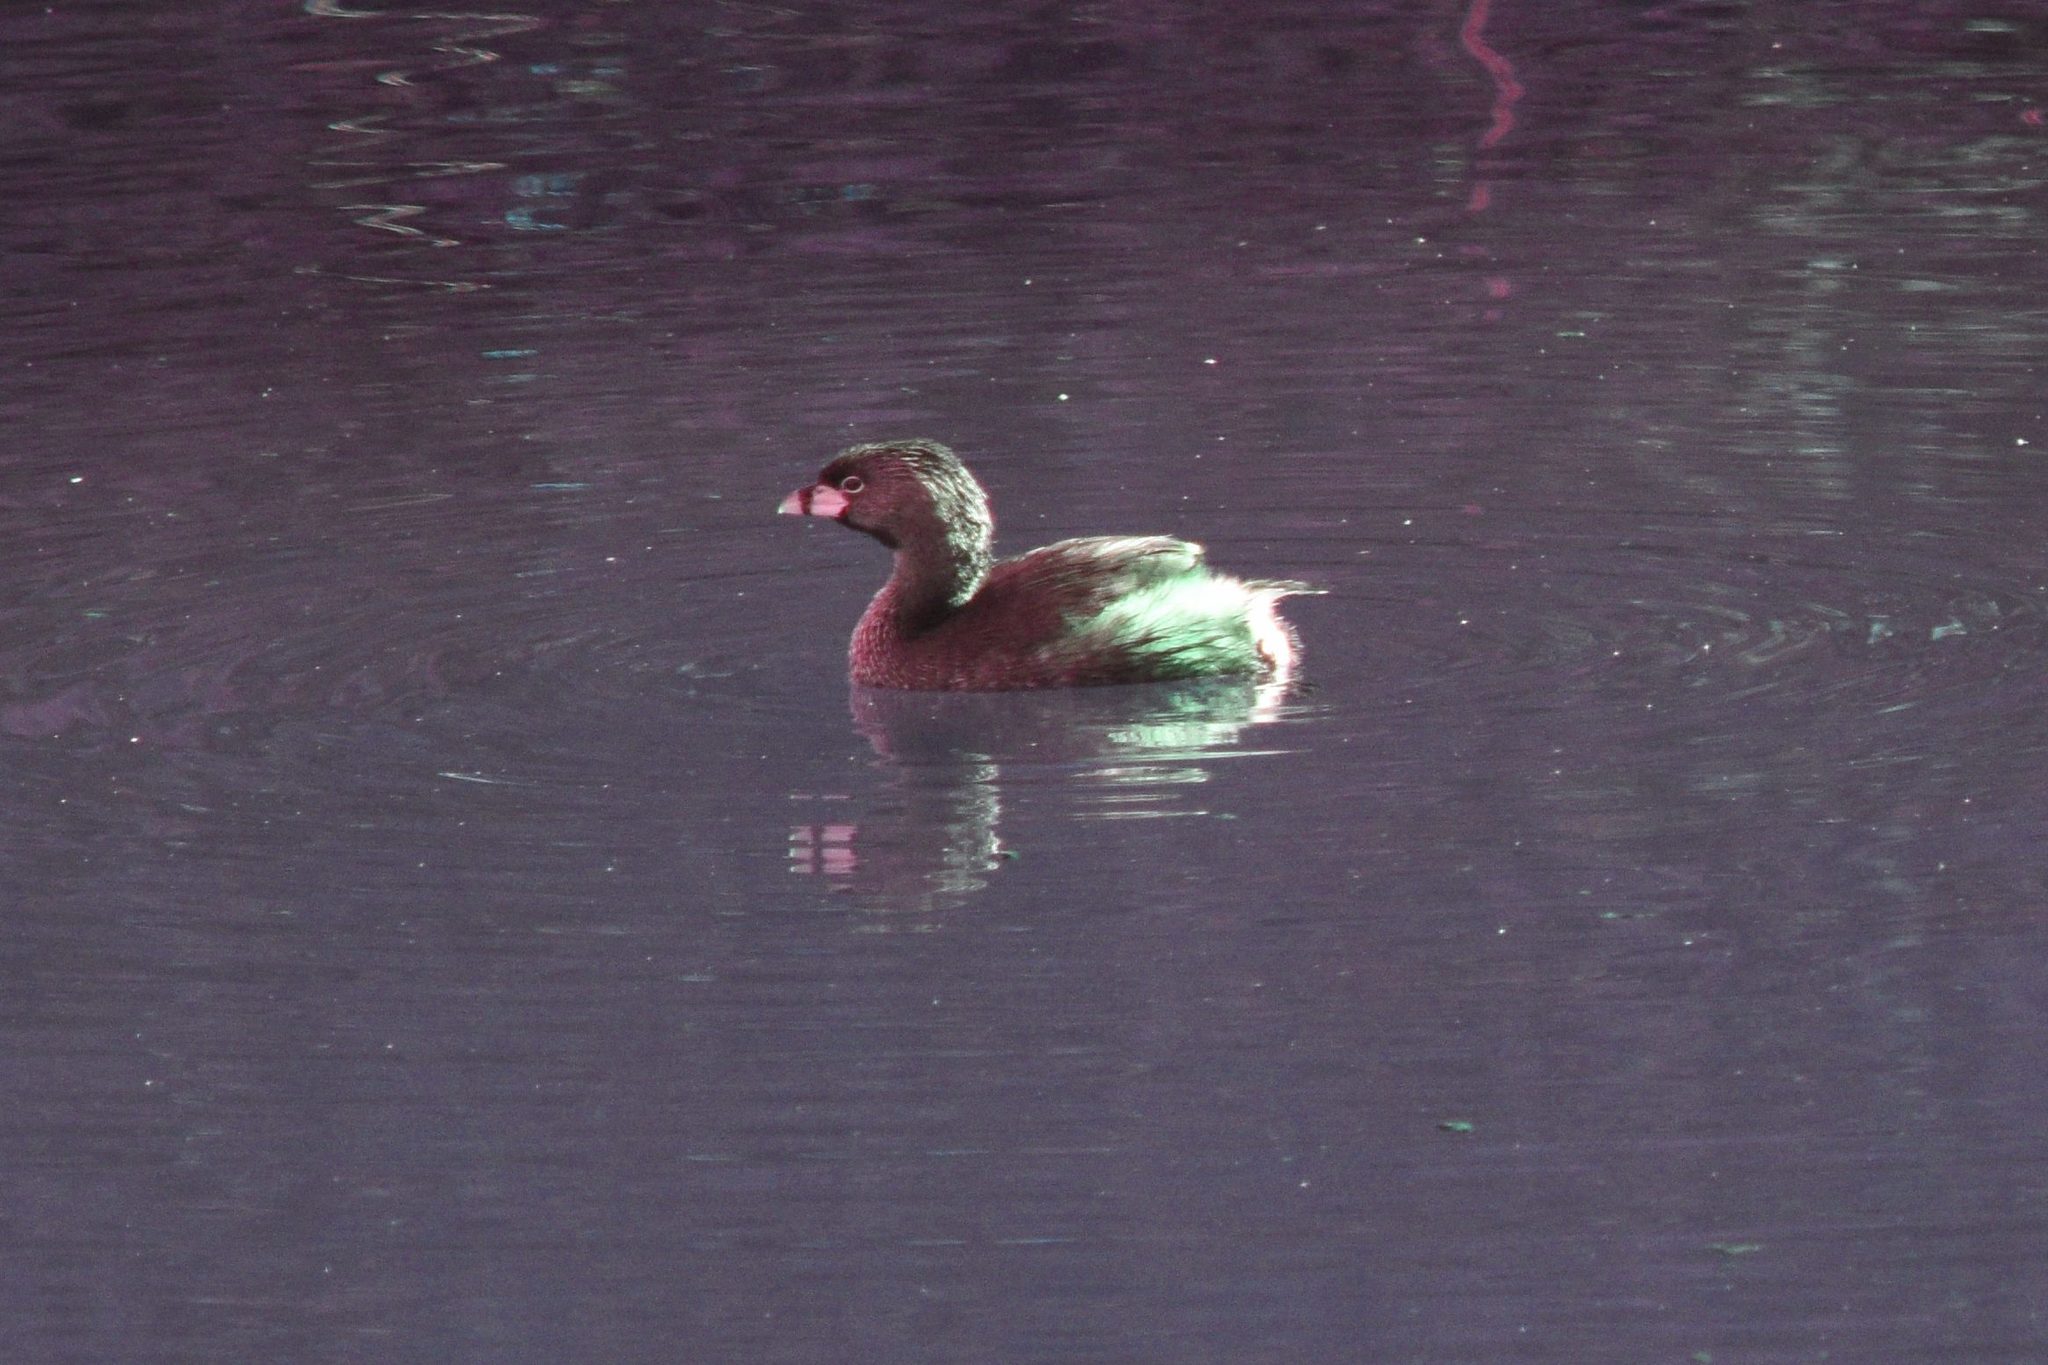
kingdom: Animalia
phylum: Chordata
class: Aves
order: Podicipediformes
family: Podicipedidae
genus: Podilymbus
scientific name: Podilymbus podiceps
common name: Pied-billed grebe
